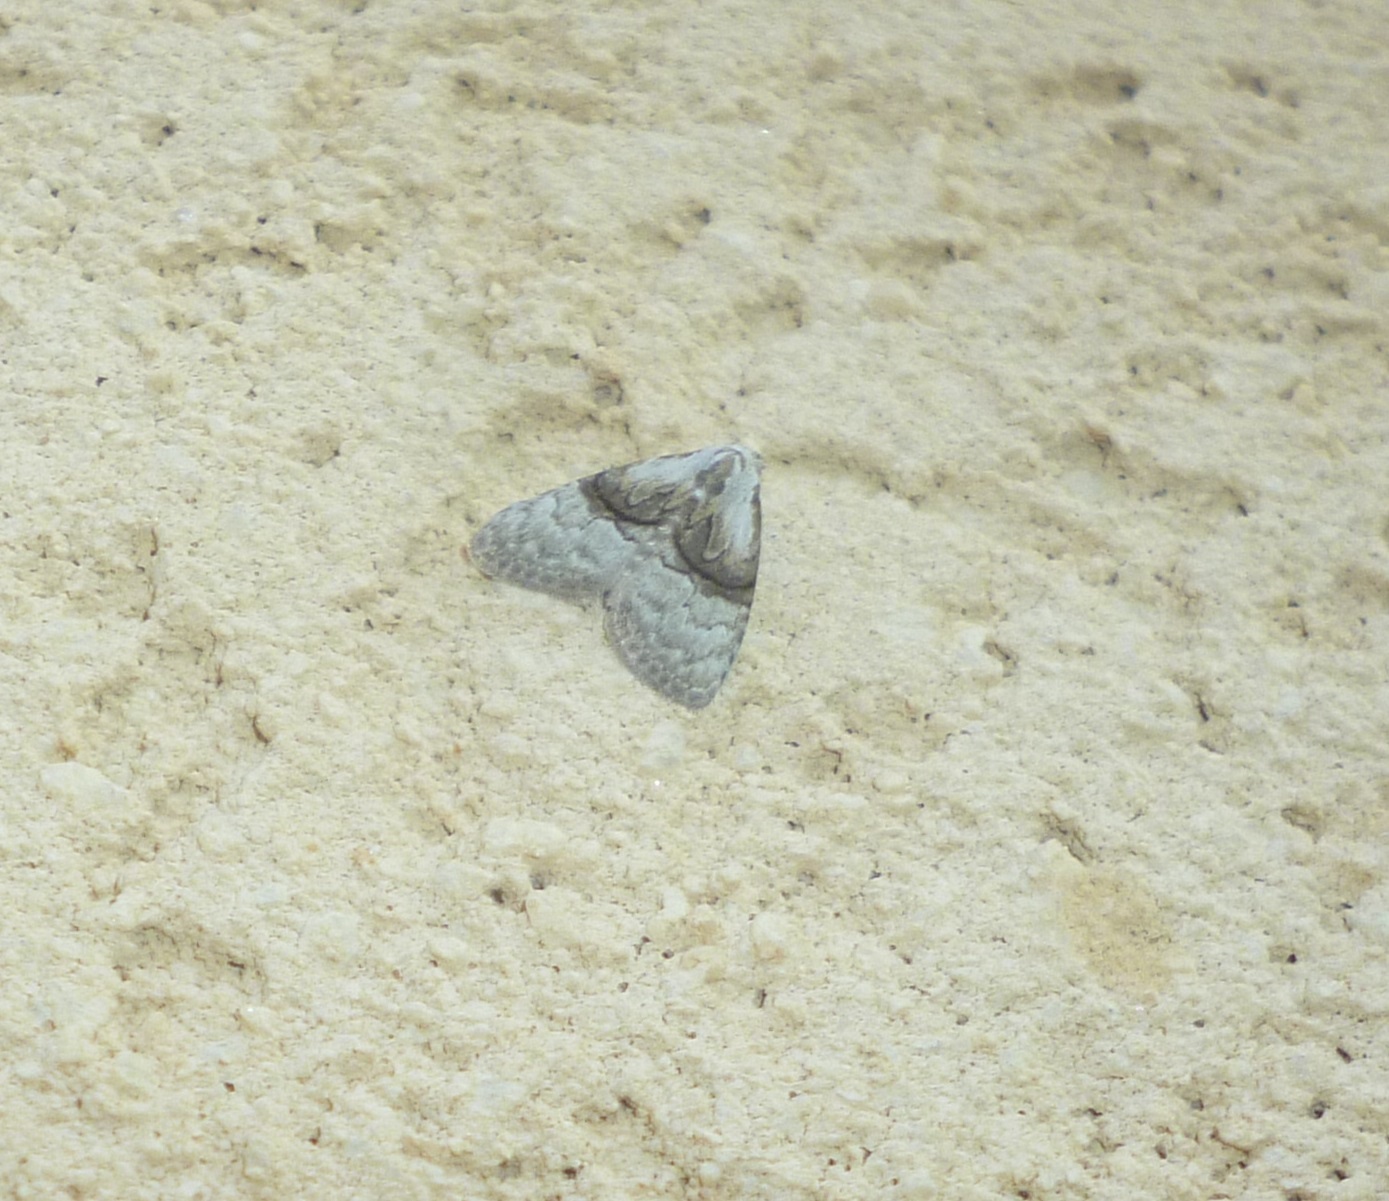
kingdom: Animalia
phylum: Arthropoda
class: Insecta
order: Lepidoptera
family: Nolidae
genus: Meganola
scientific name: Meganola togatulalis
